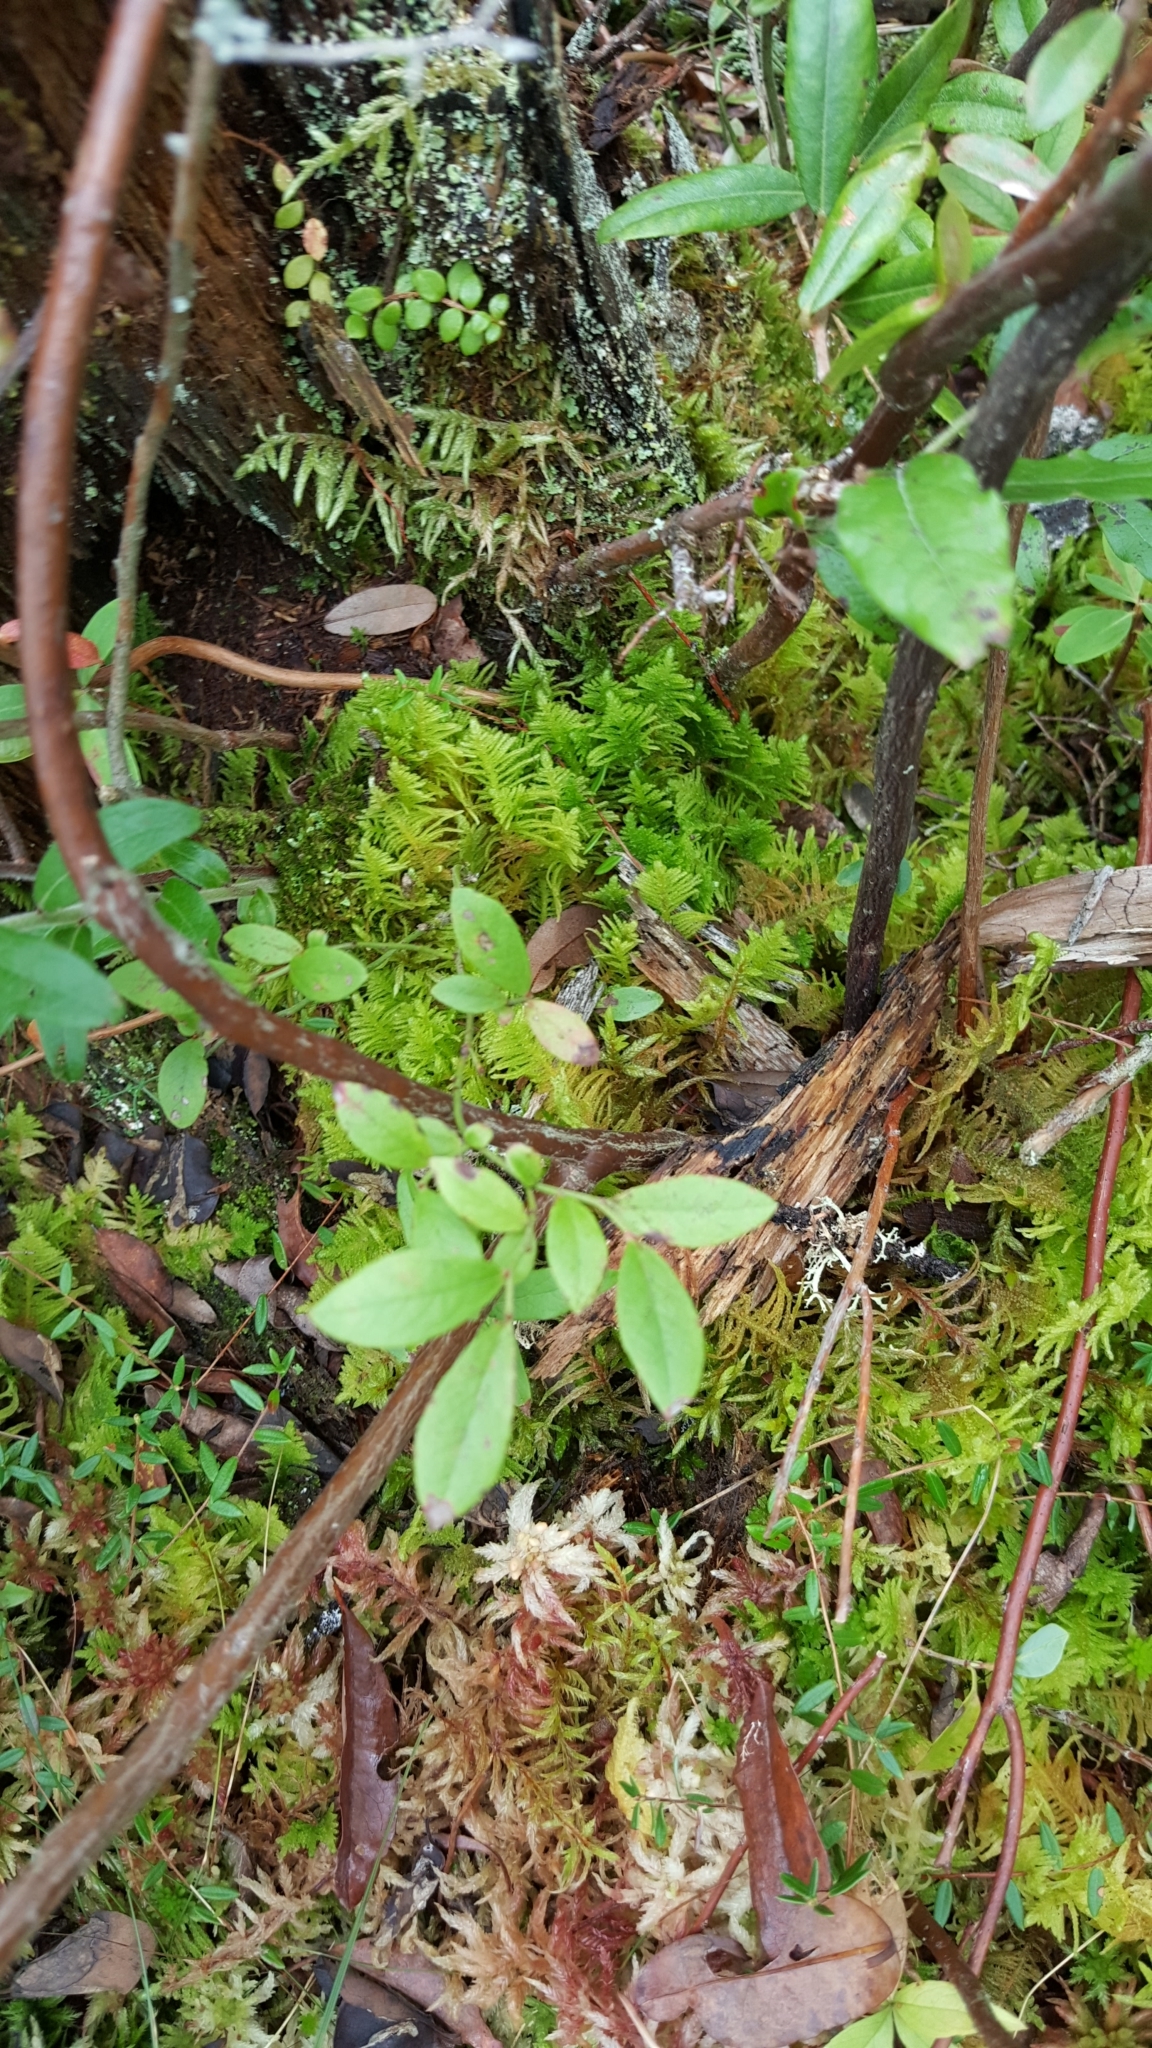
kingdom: Plantae
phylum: Bryophyta
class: Bryopsida
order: Hypnales
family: Pylaisiaceae
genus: Ptilium
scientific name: Ptilium crista-castrensis
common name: Knight's plume moss
